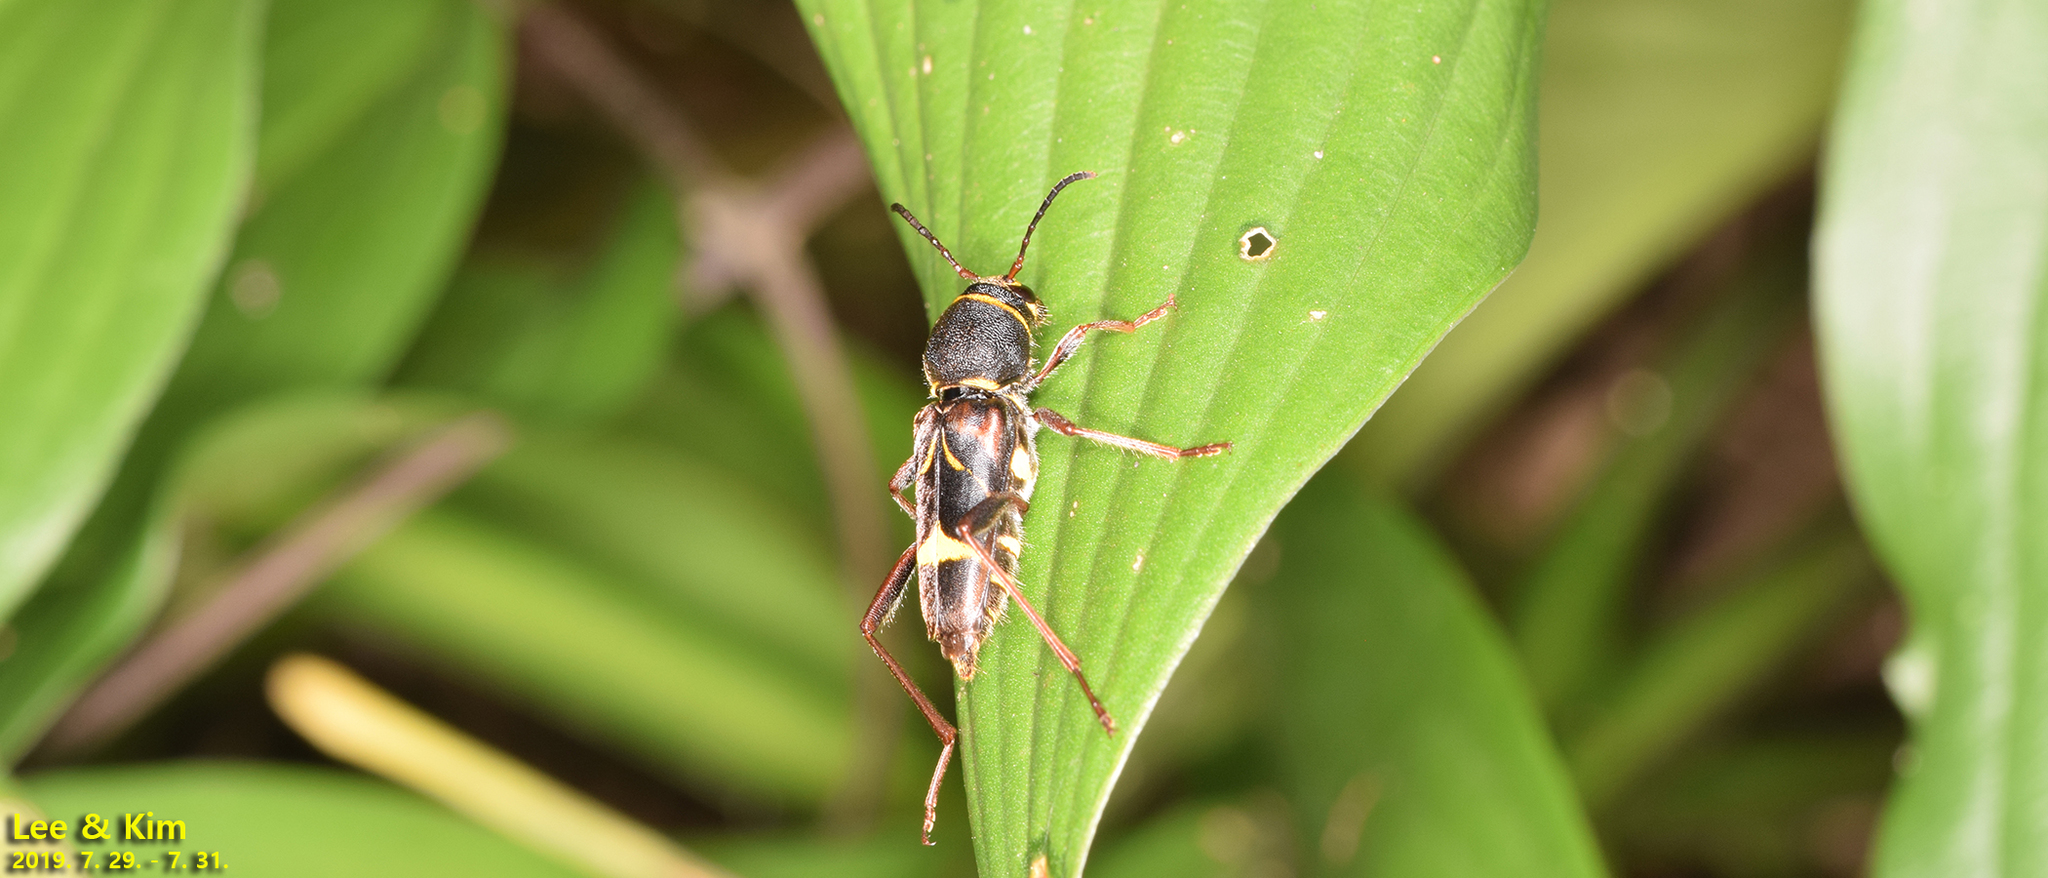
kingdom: Animalia
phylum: Arthropoda
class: Insecta
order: Coleoptera
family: Cerambycidae
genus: Xylotrechus
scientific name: Xylotrechus yanoi
